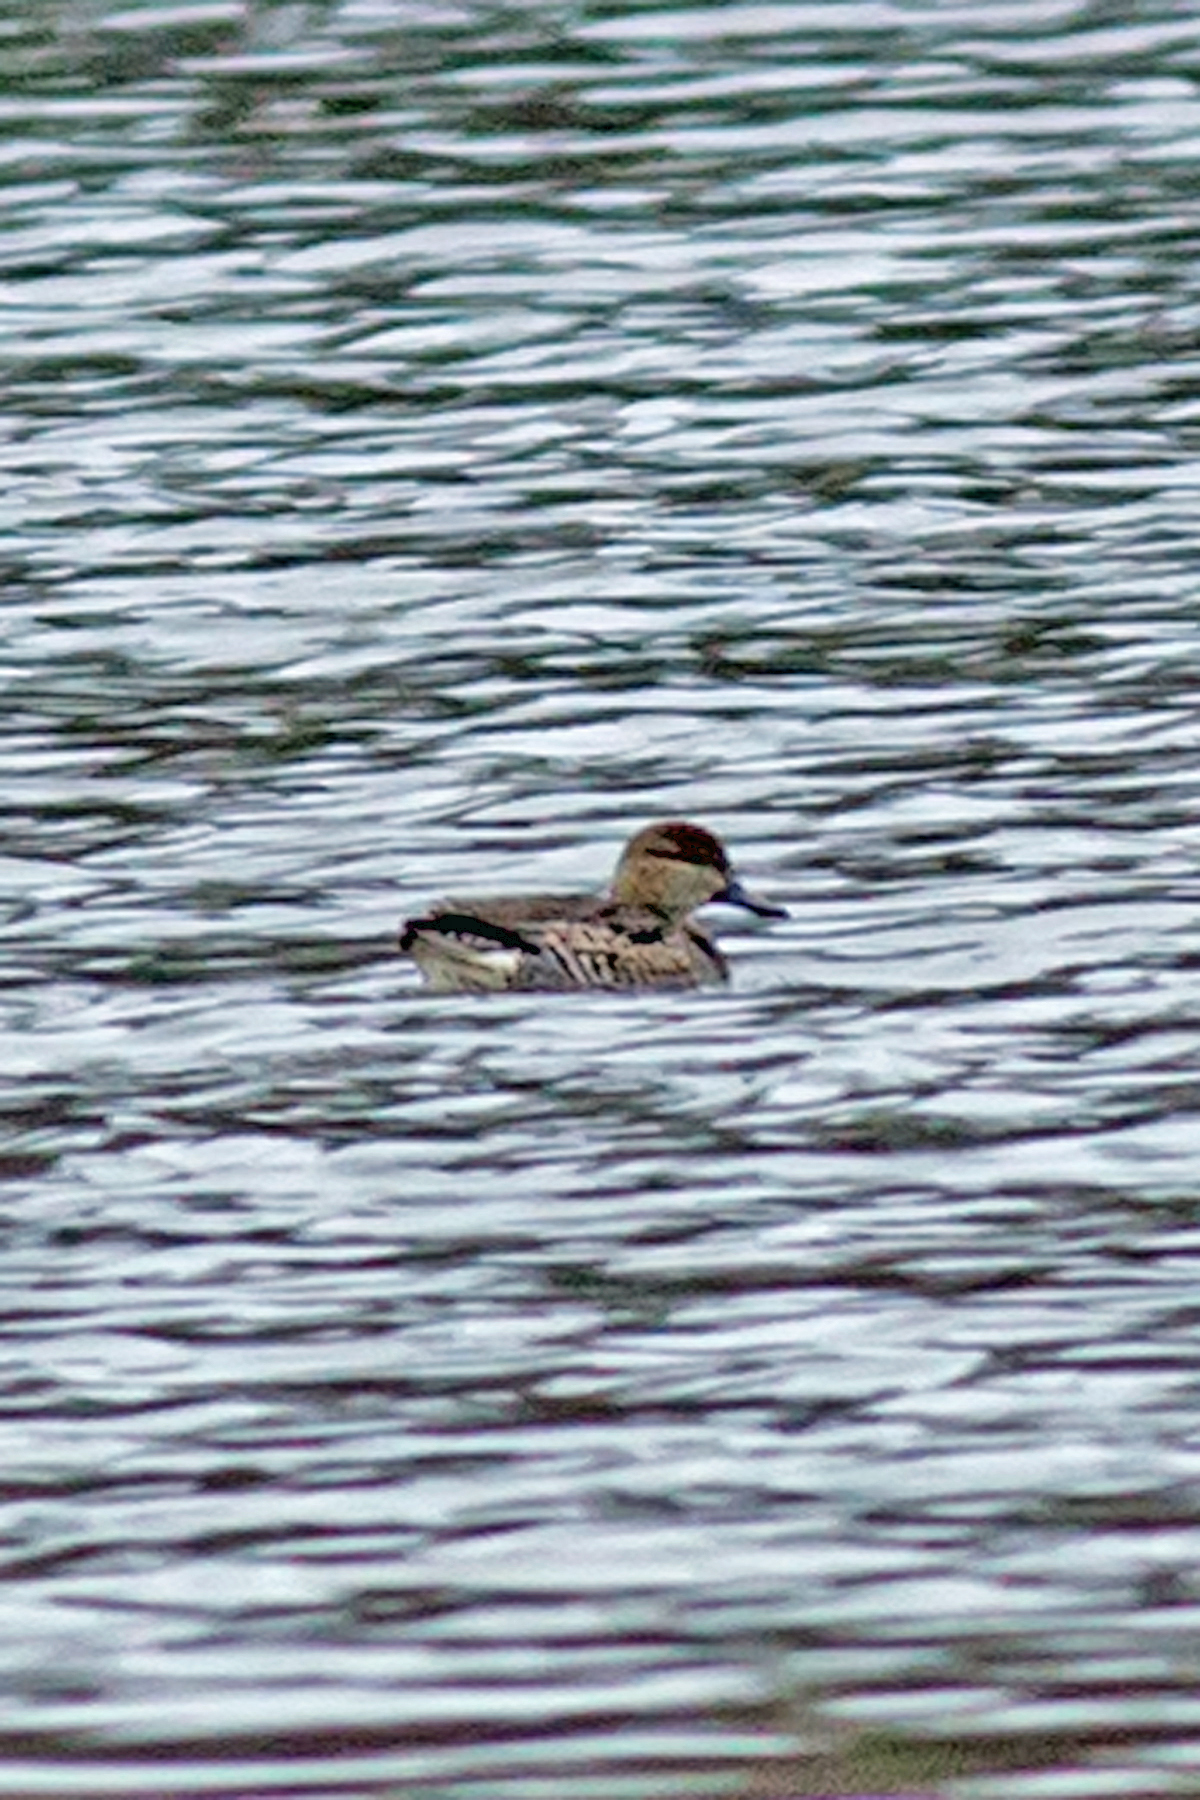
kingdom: Animalia
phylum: Chordata
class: Aves
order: Anseriformes
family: Anatidae
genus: Anas
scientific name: Anas crecca
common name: Eurasian teal
